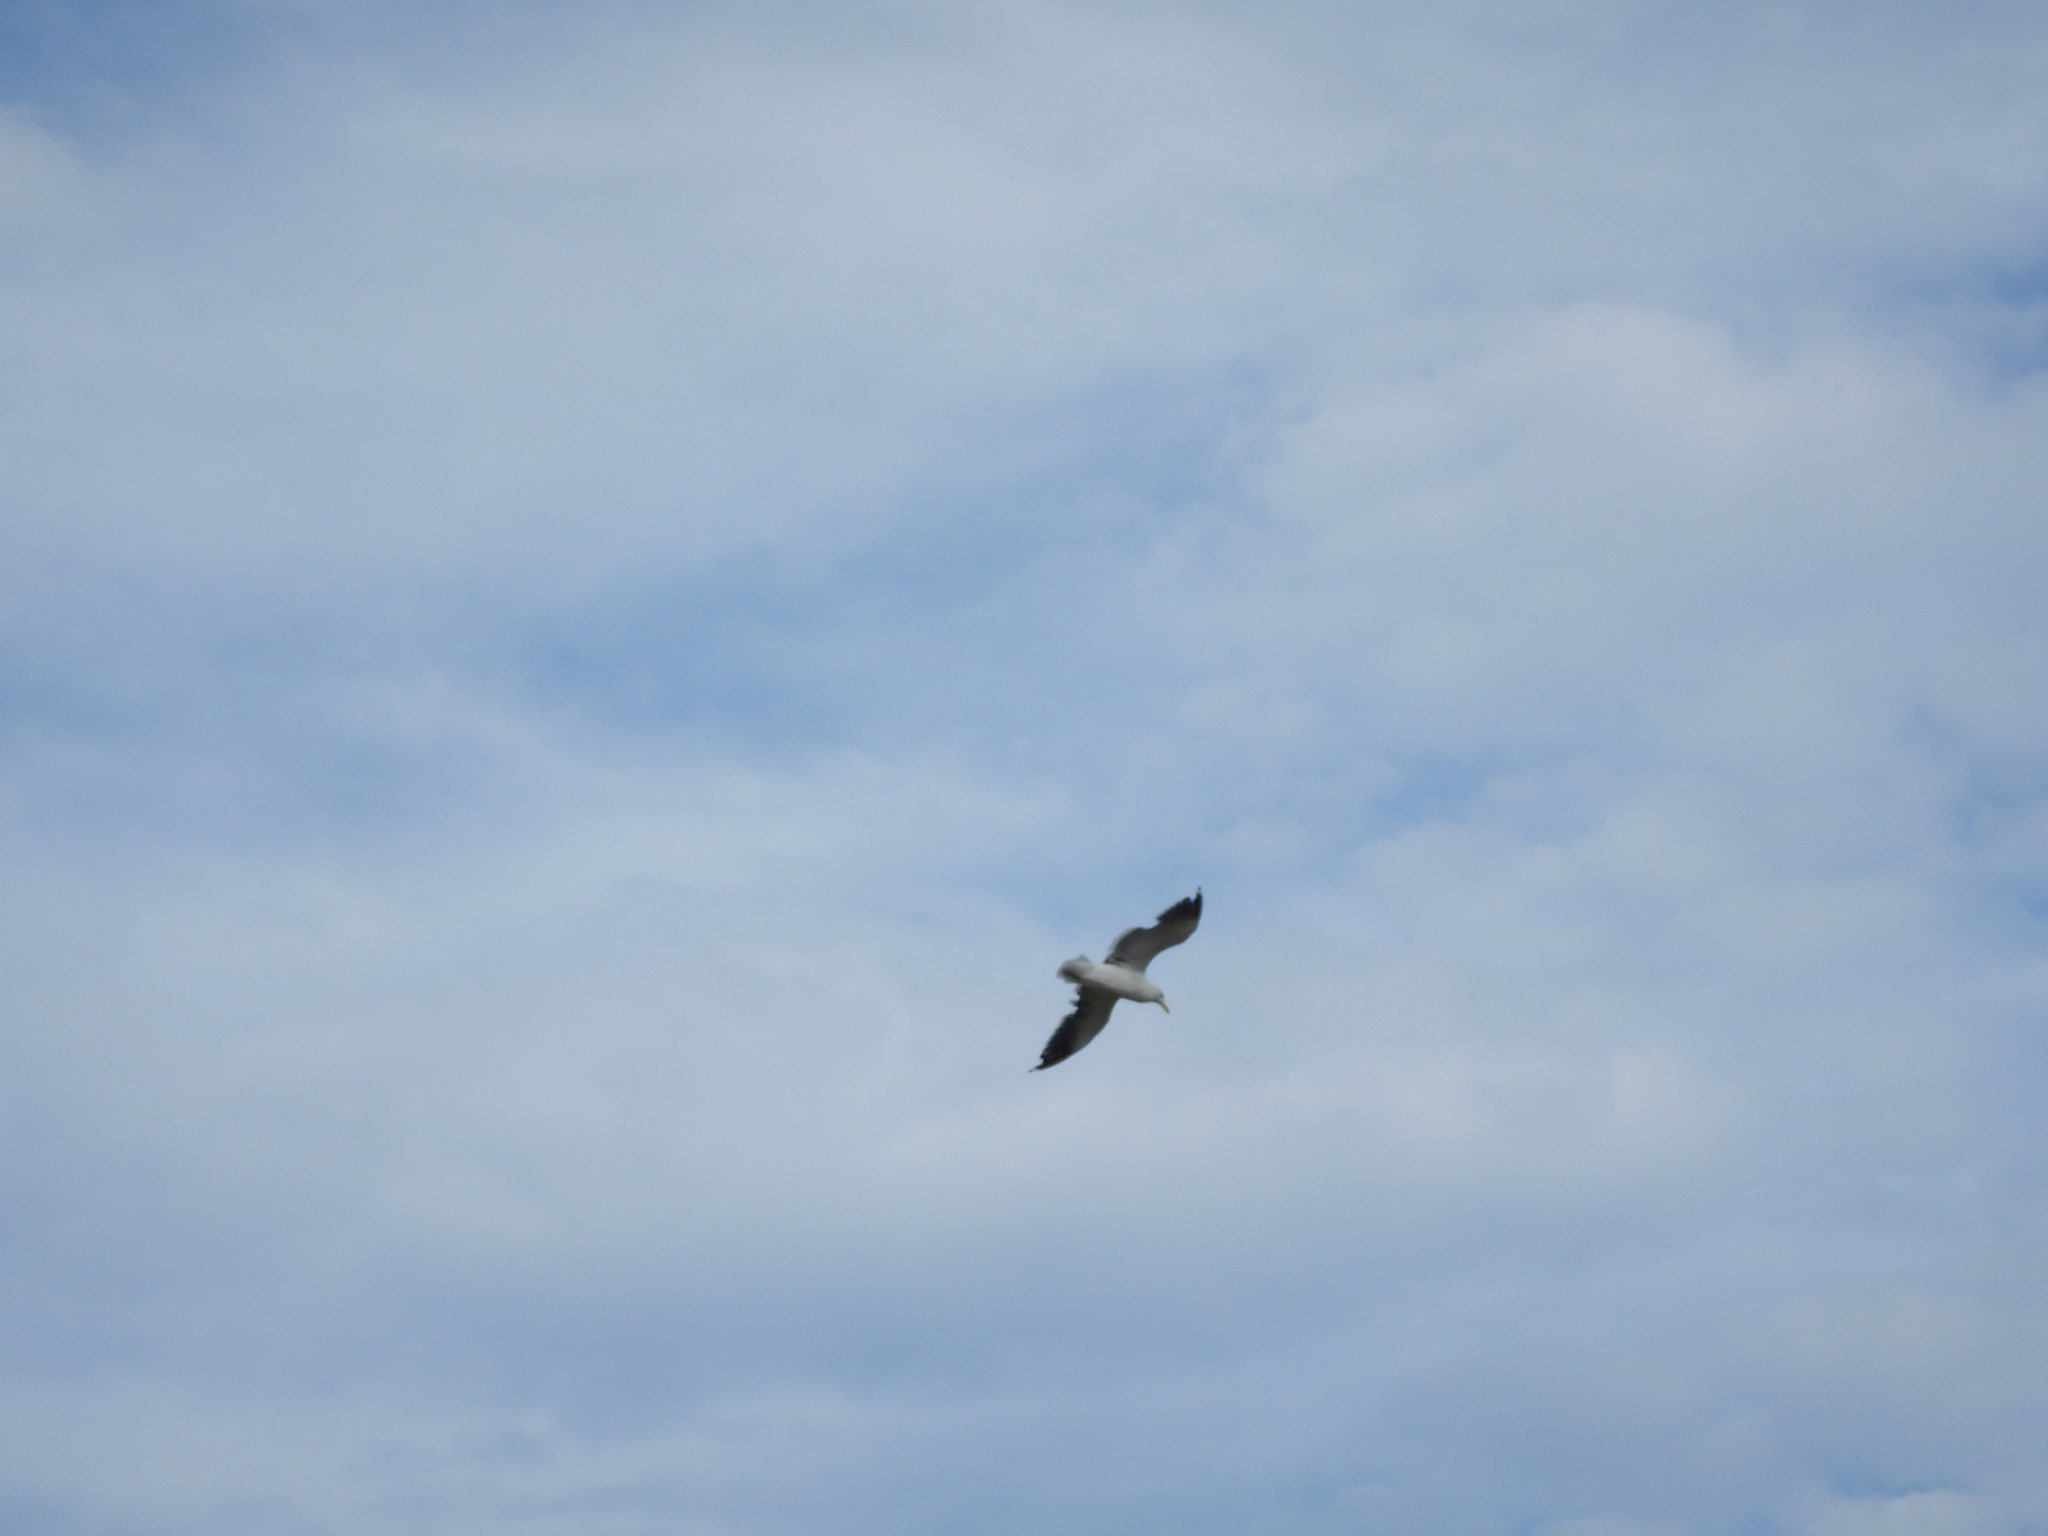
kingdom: Animalia
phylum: Chordata
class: Aves
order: Charadriiformes
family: Laridae
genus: Larus
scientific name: Larus dominicanus
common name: Kelp gull
